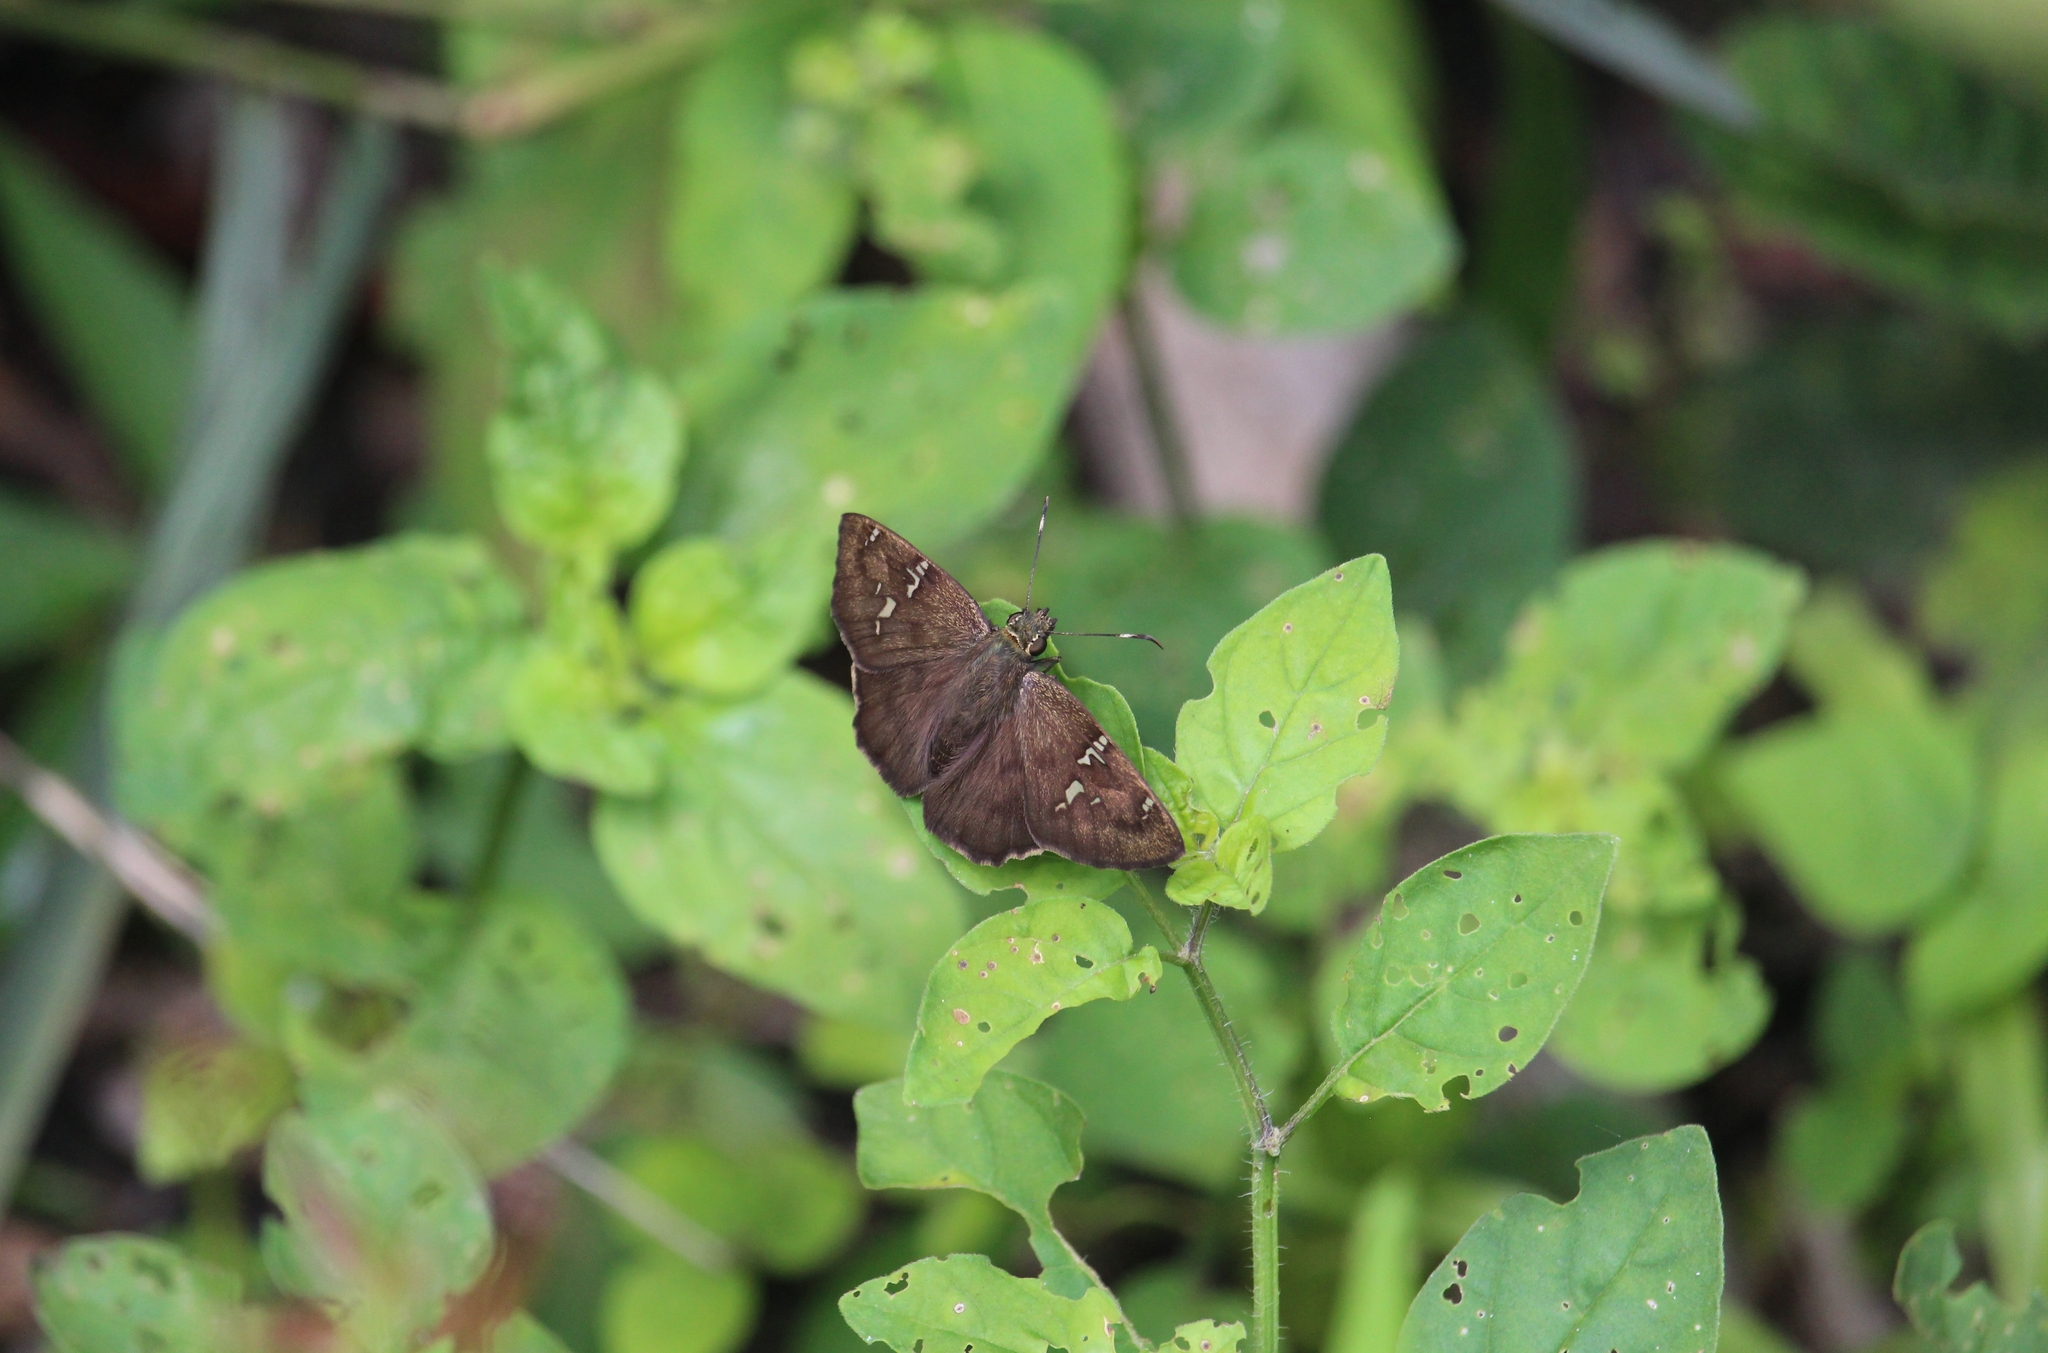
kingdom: Animalia
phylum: Arthropoda
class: Insecta
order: Lepidoptera
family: Hesperiidae
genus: Autochton
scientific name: Autochton potrillo
